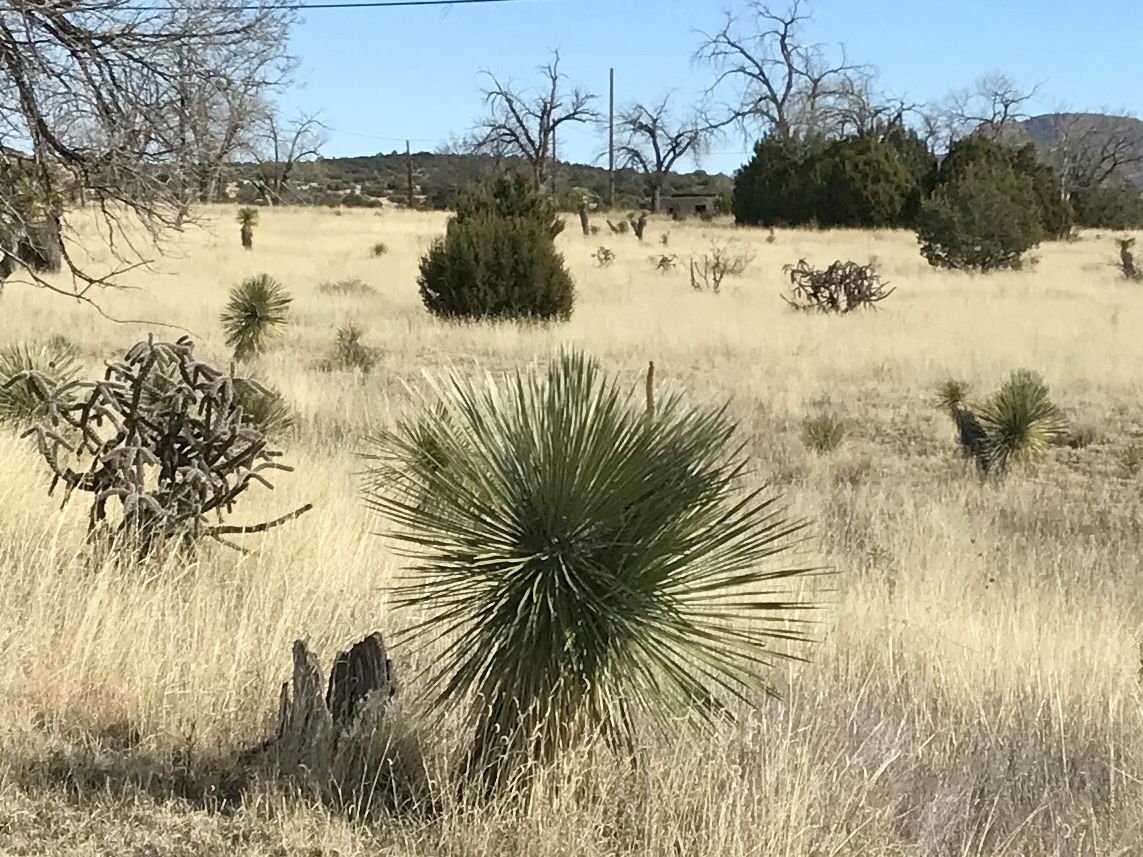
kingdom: Plantae
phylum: Tracheophyta
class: Liliopsida
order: Asparagales
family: Asparagaceae
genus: Yucca
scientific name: Yucca elata
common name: Palmella
